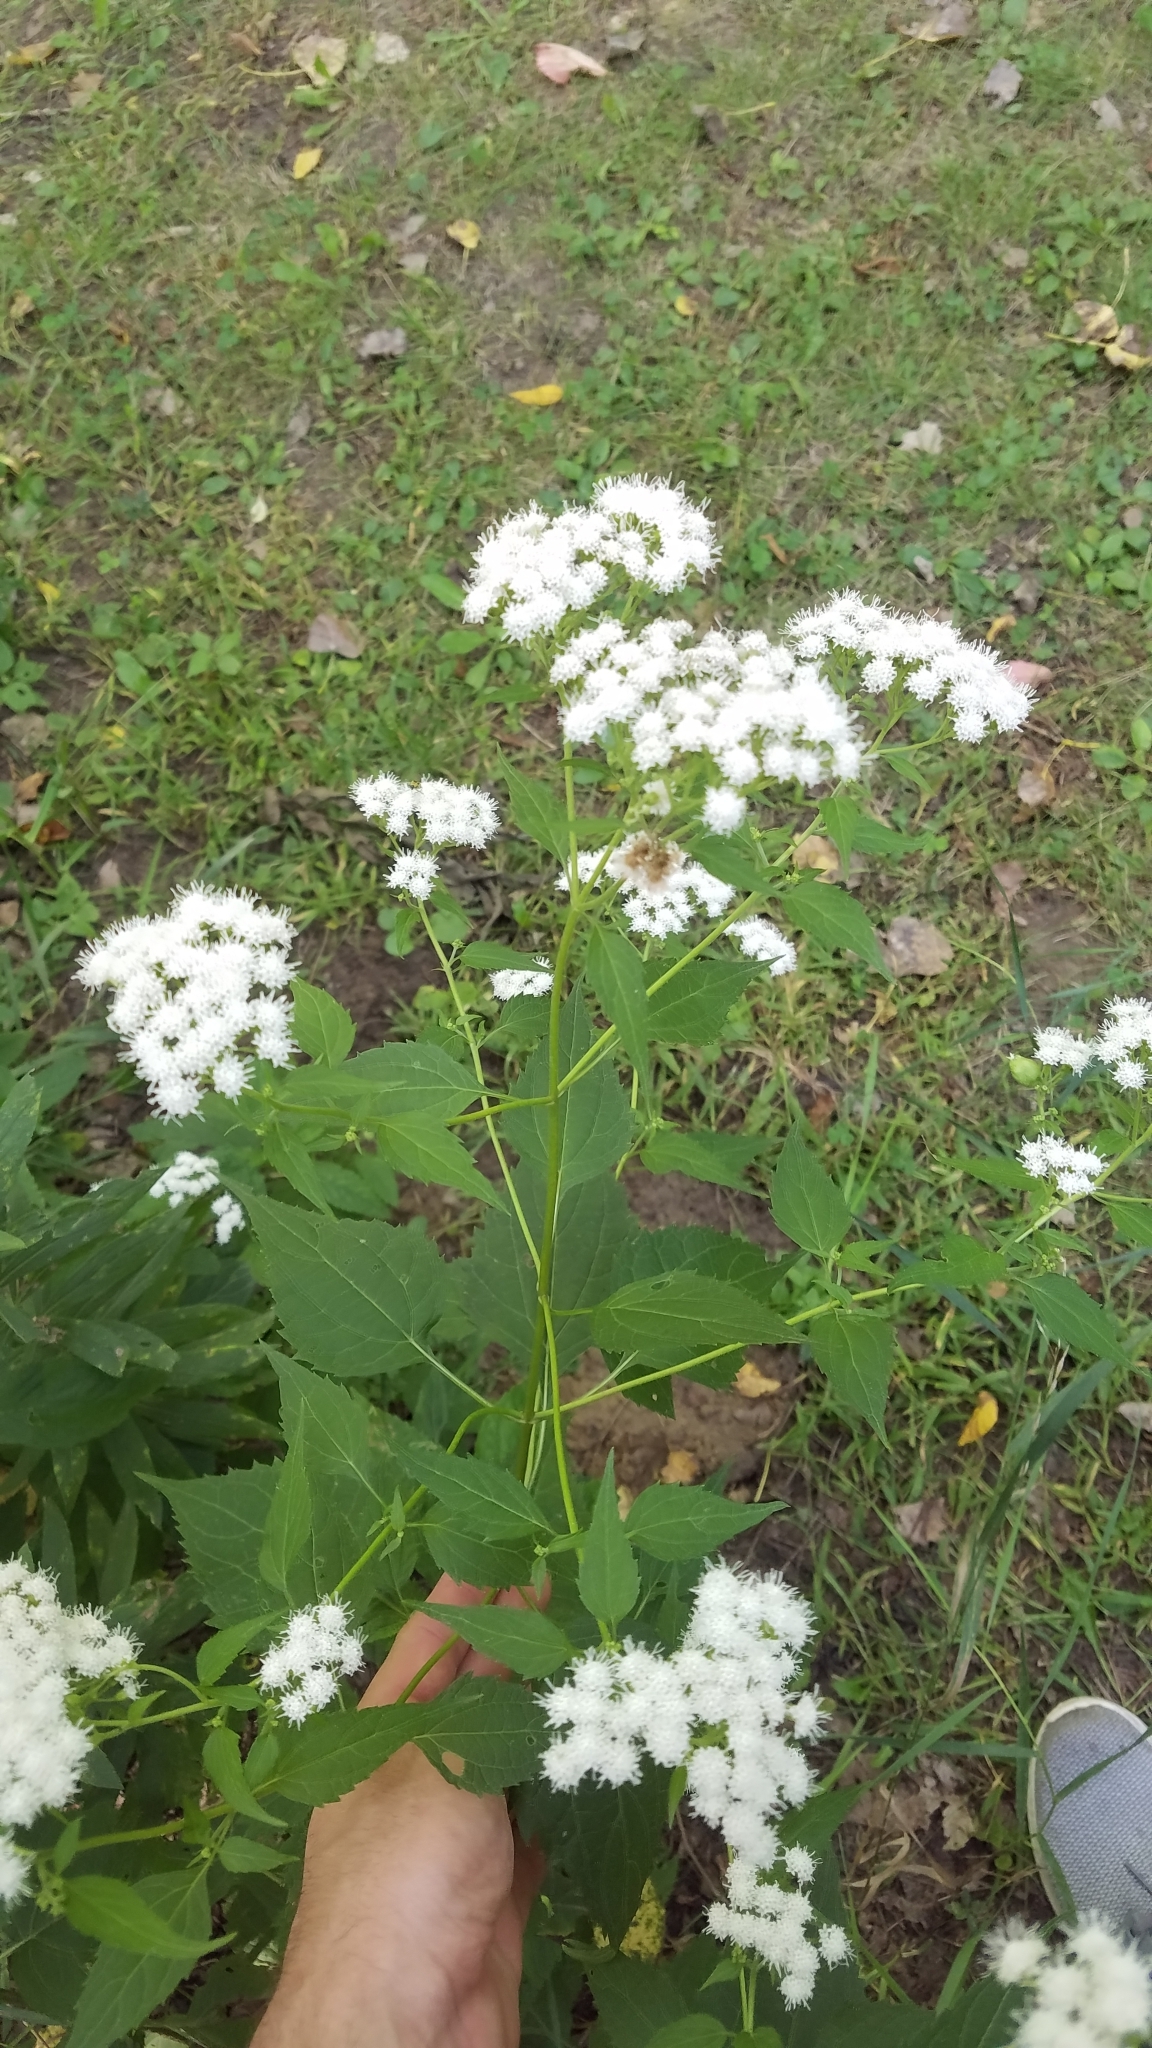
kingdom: Plantae
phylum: Tracheophyta
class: Magnoliopsida
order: Asterales
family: Asteraceae
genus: Ageratina
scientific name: Ageratina altissima
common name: White snakeroot
